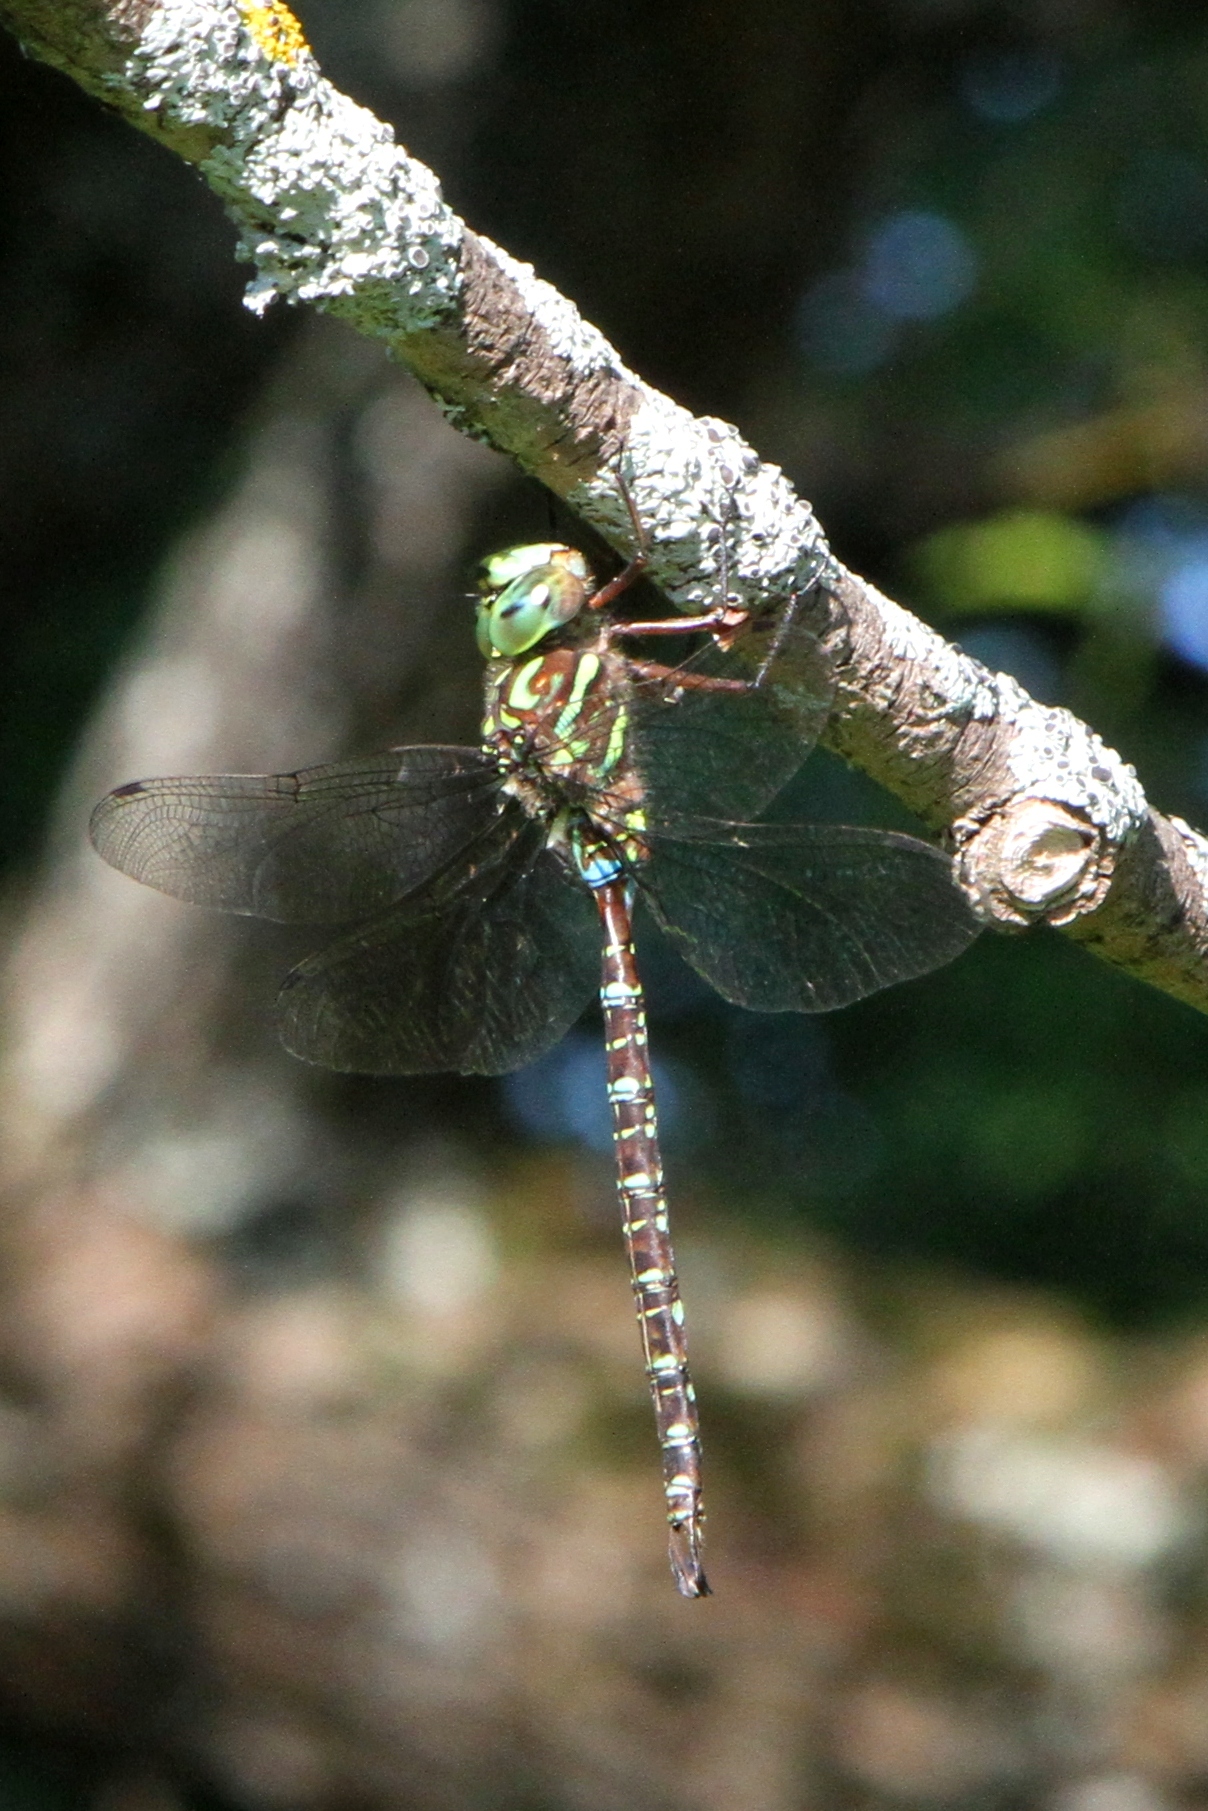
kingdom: Animalia
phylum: Arthropoda
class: Insecta
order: Odonata
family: Aeshnidae
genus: Aeshna
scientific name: Aeshna umbrosa
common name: Shadow darner
